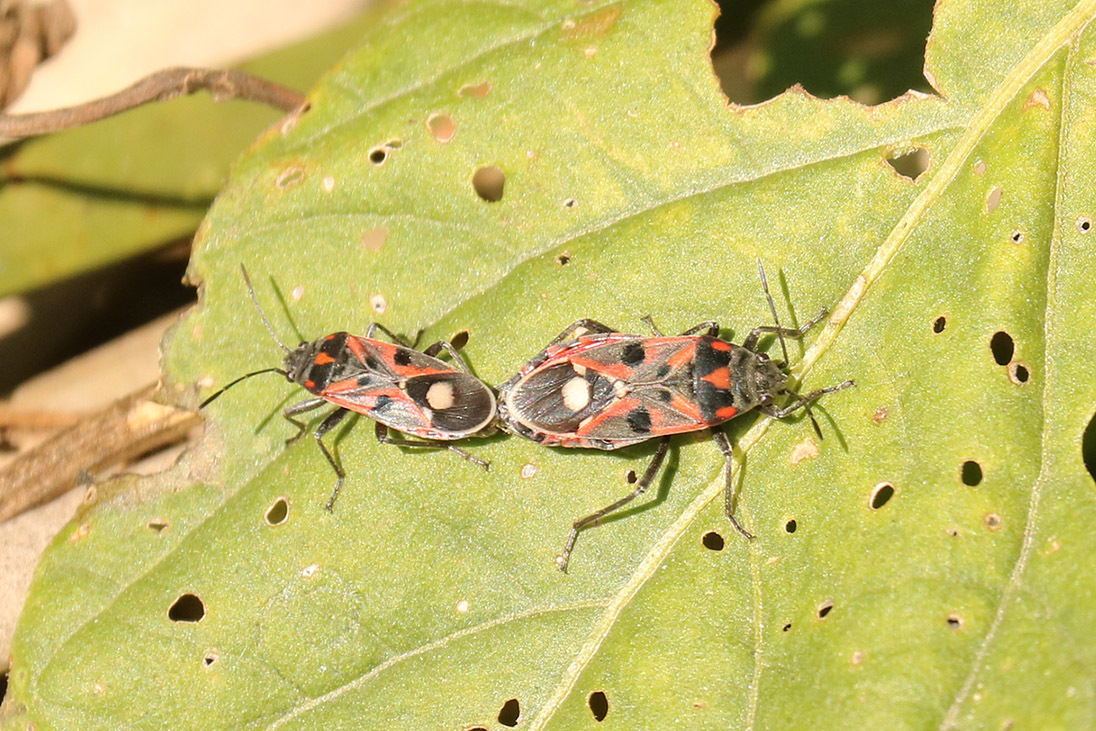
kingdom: Animalia
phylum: Arthropoda
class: Insecta
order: Hemiptera
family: Lygaeidae
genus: Lygaeus
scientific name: Lygaeus alboornatus
